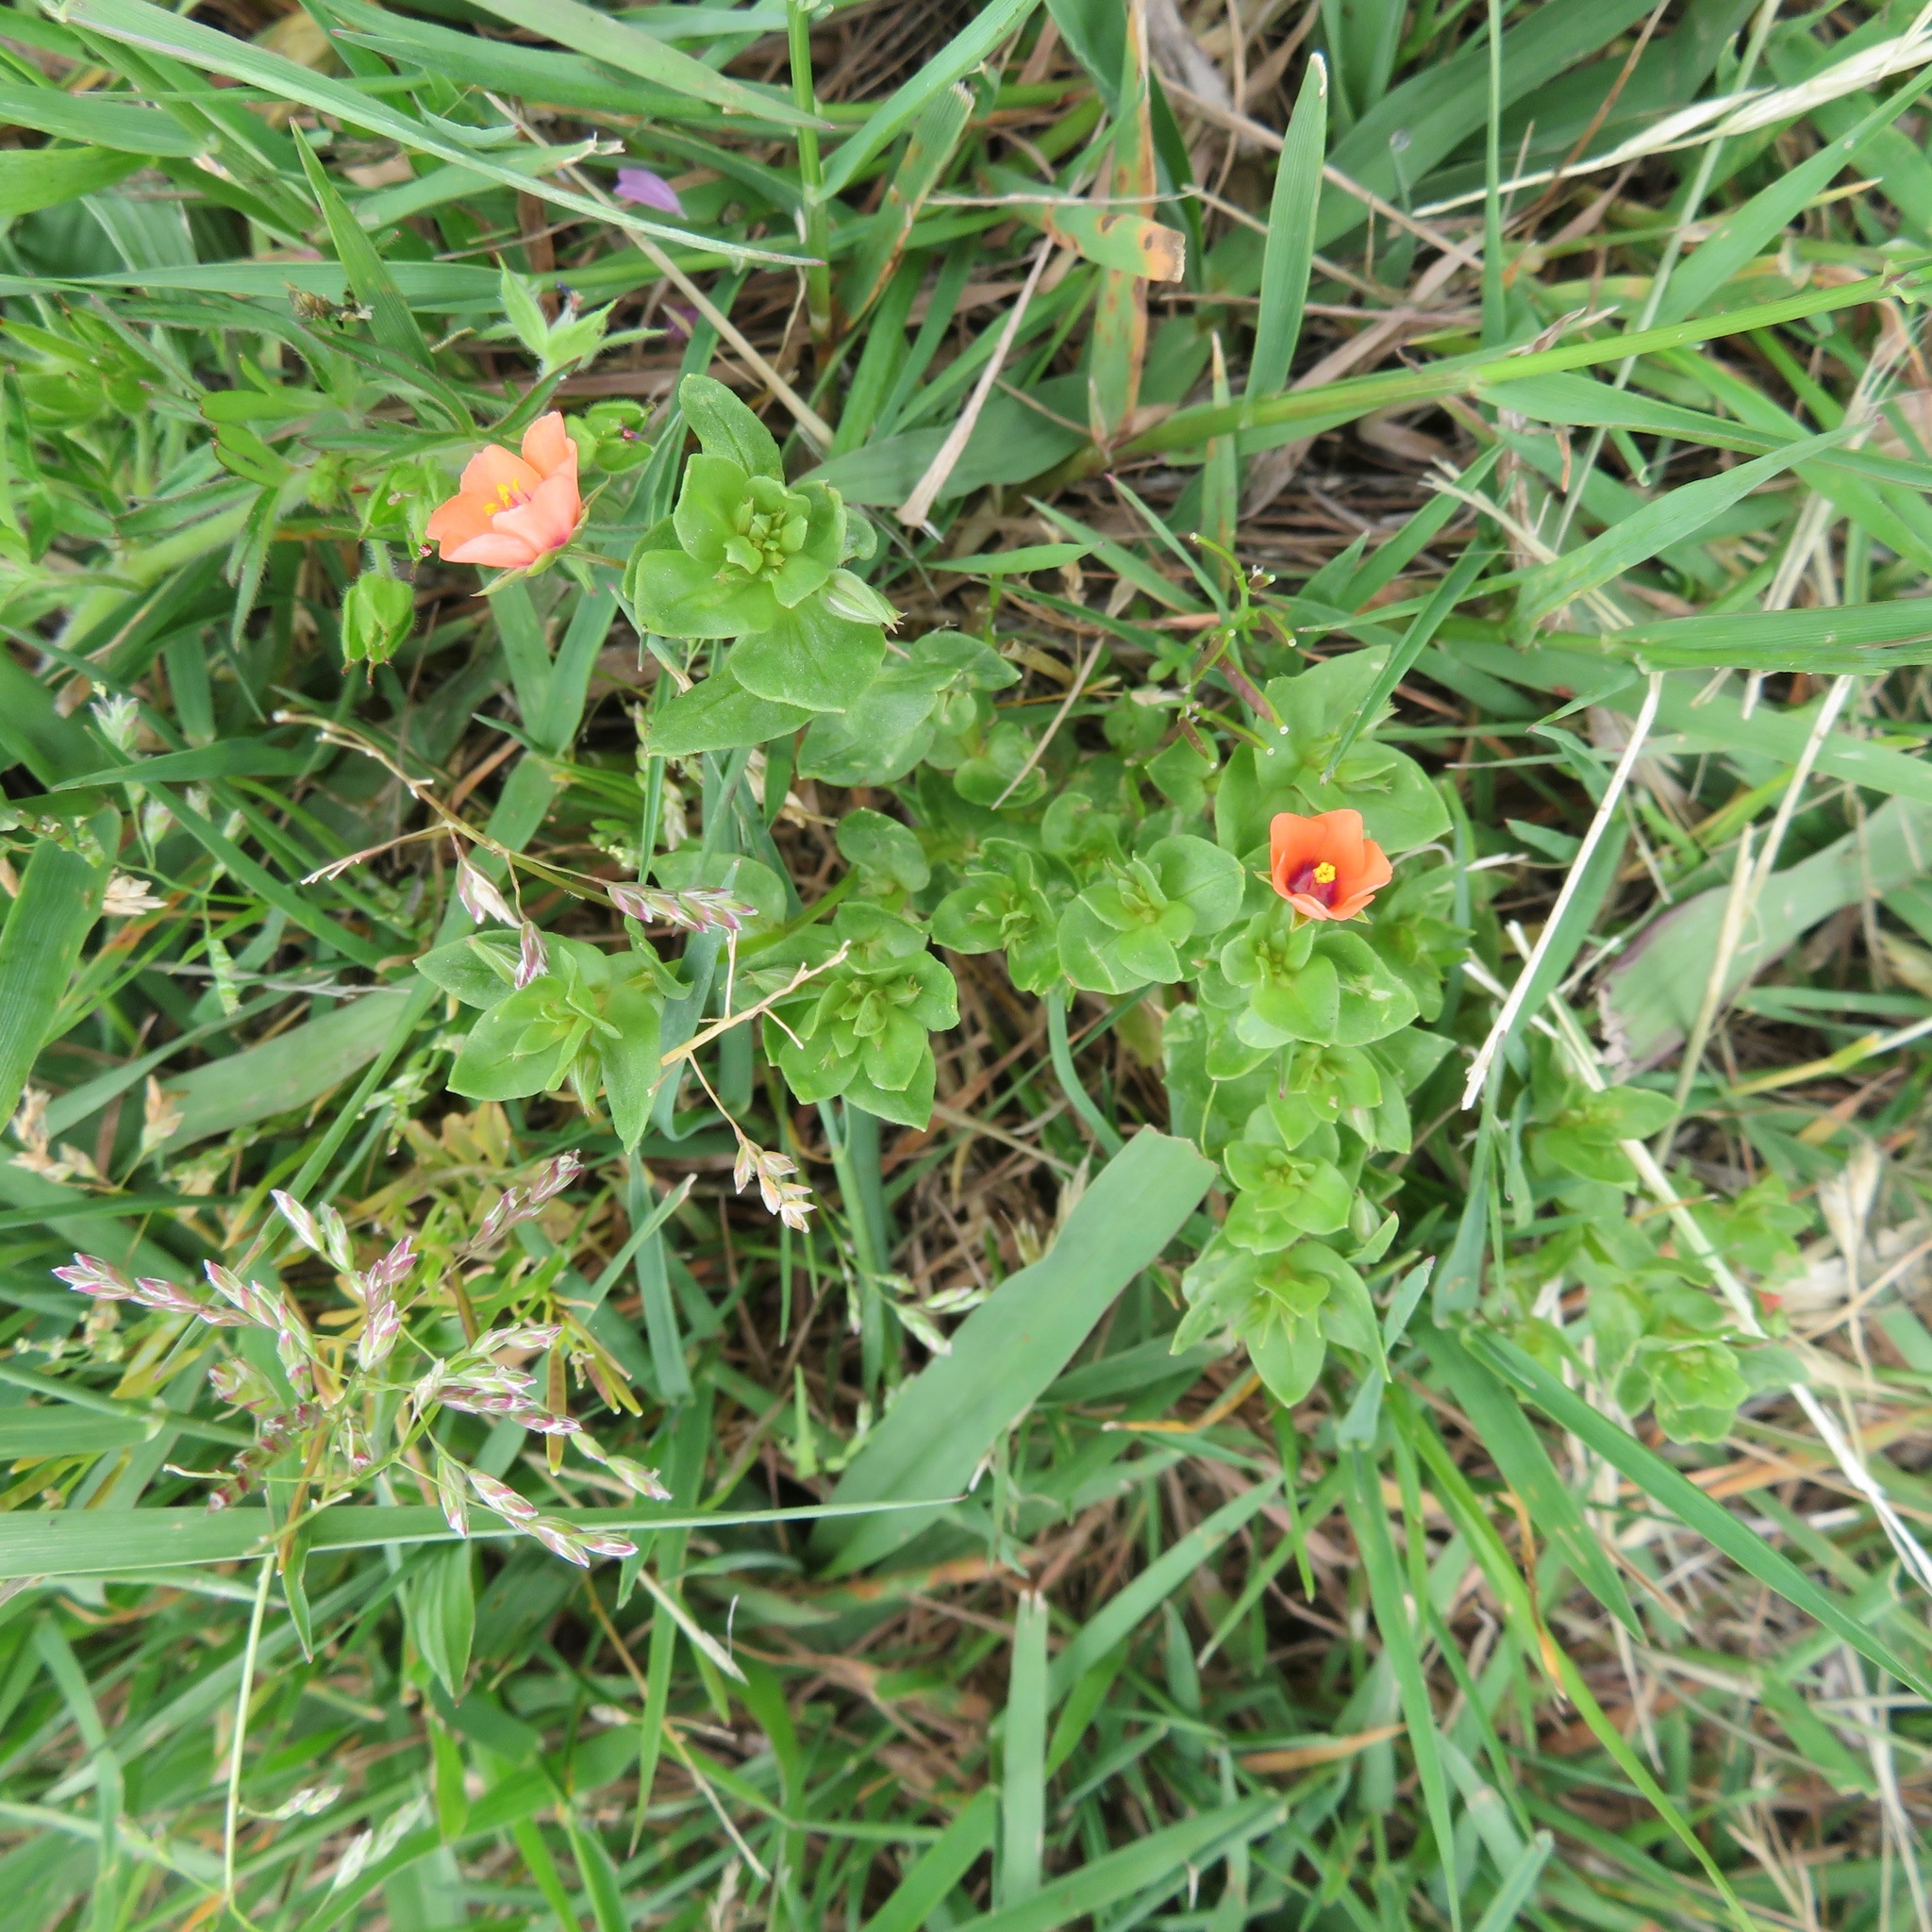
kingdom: Plantae
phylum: Tracheophyta
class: Magnoliopsida
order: Ericales
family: Primulaceae
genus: Lysimachia
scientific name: Lysimachia arvensis
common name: Scarlet pimpernel
